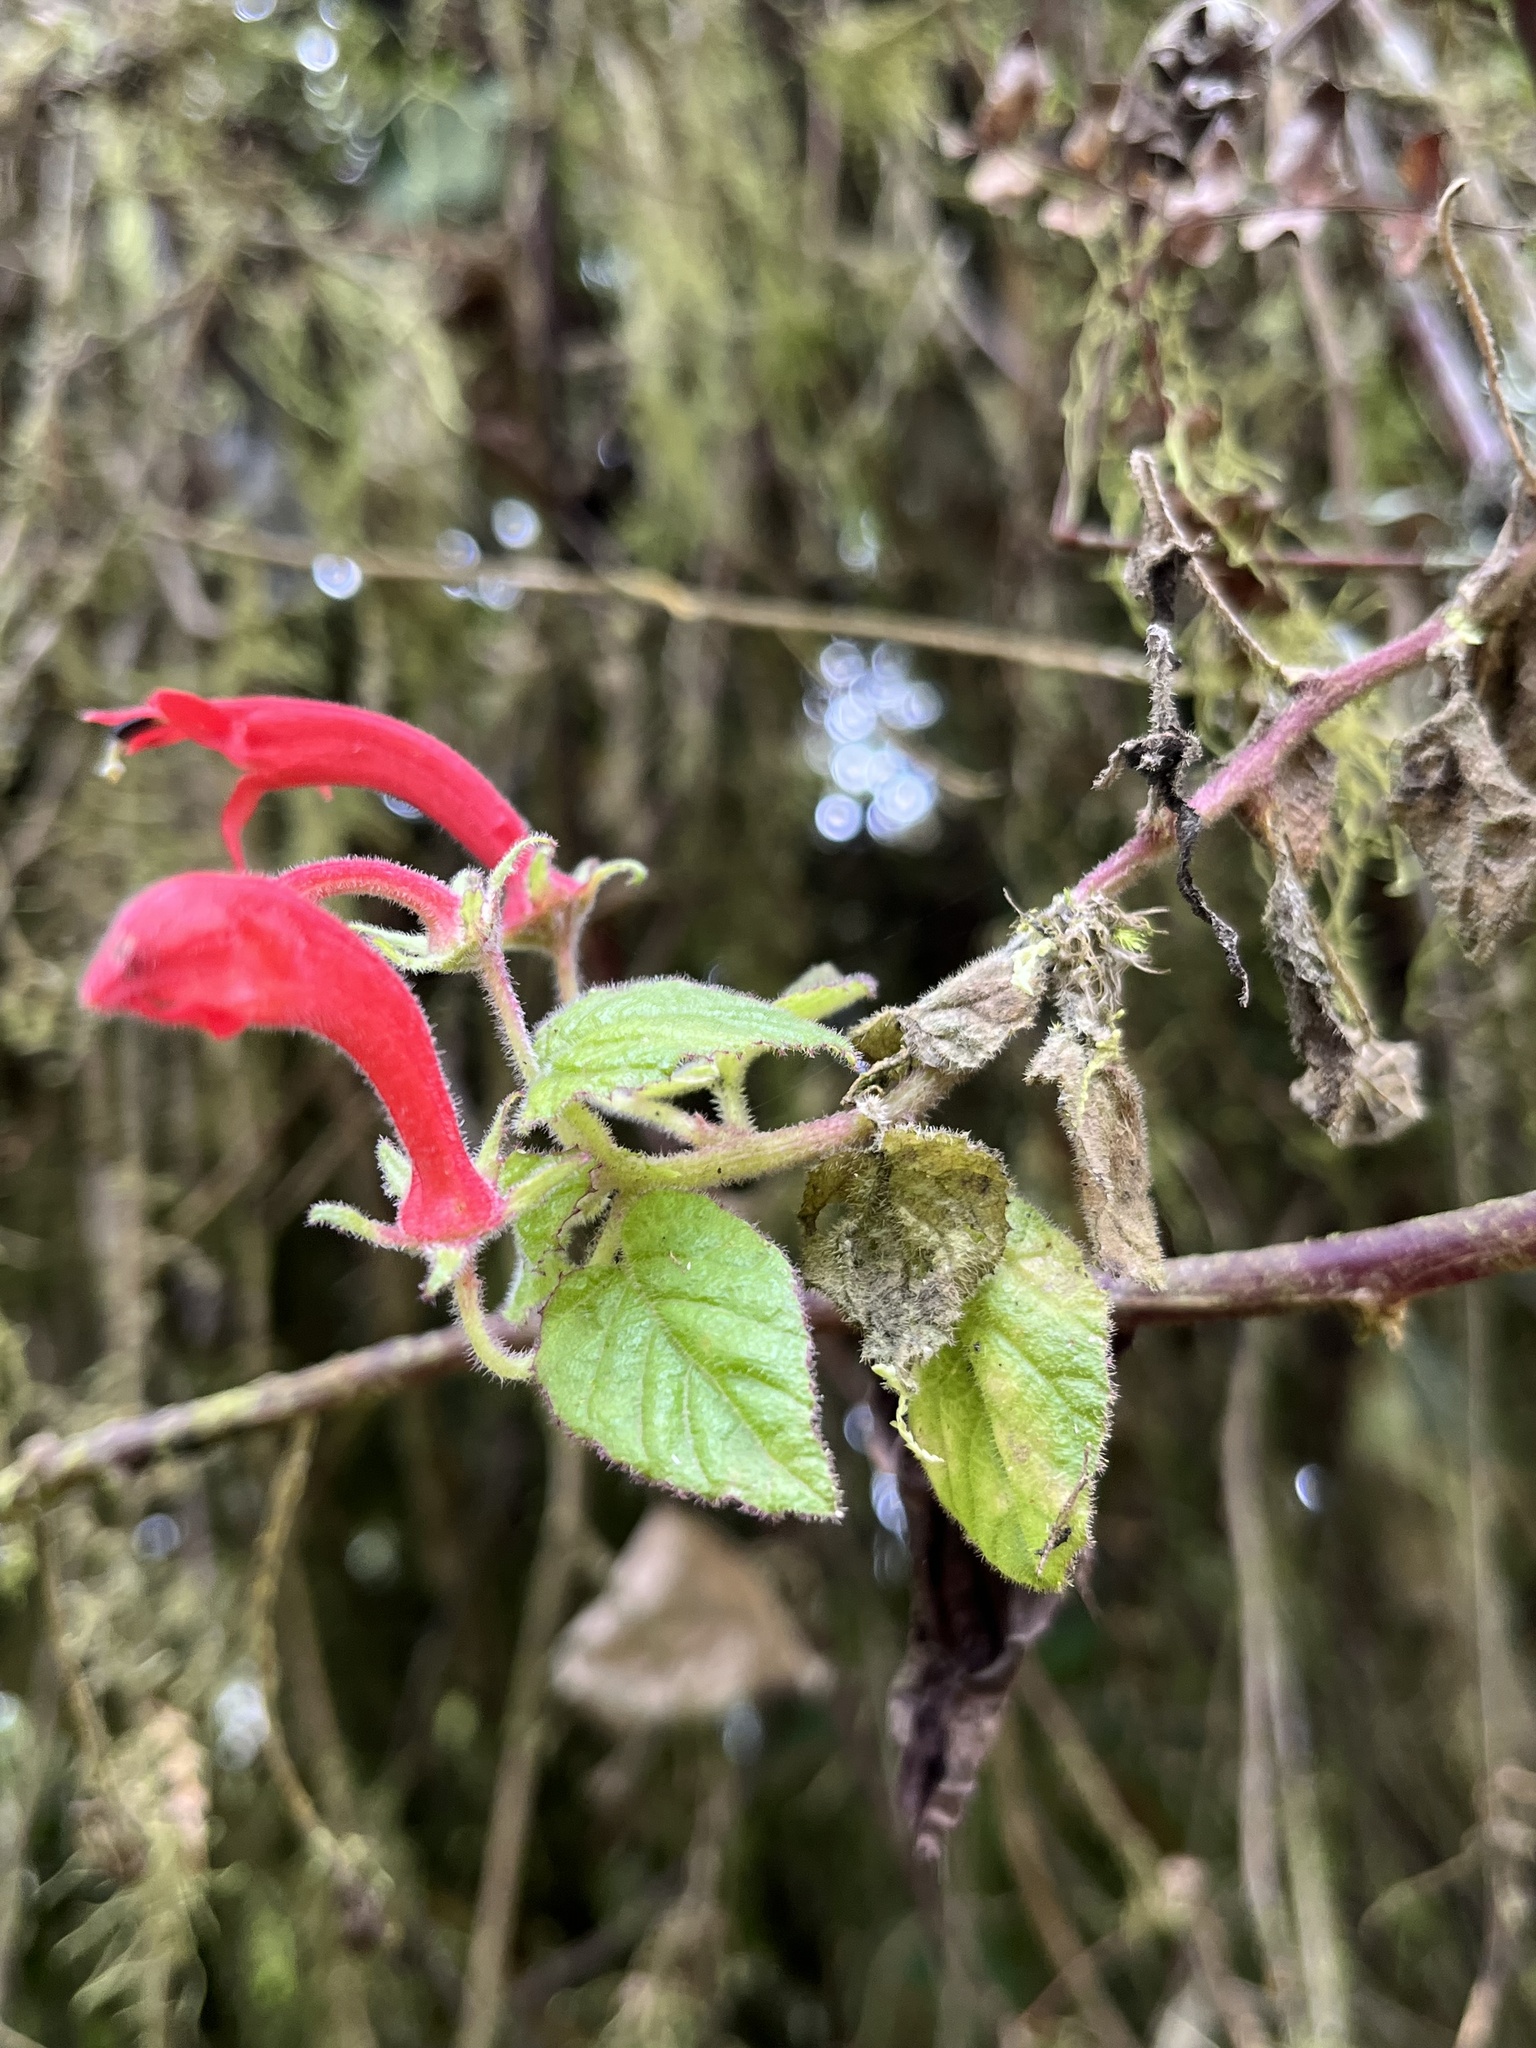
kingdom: Plantae
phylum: Tracheophyta
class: Magnoliopsida
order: Asterales
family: Campanulaceae
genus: Siphocampylus
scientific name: Siphocampylus hispidus
